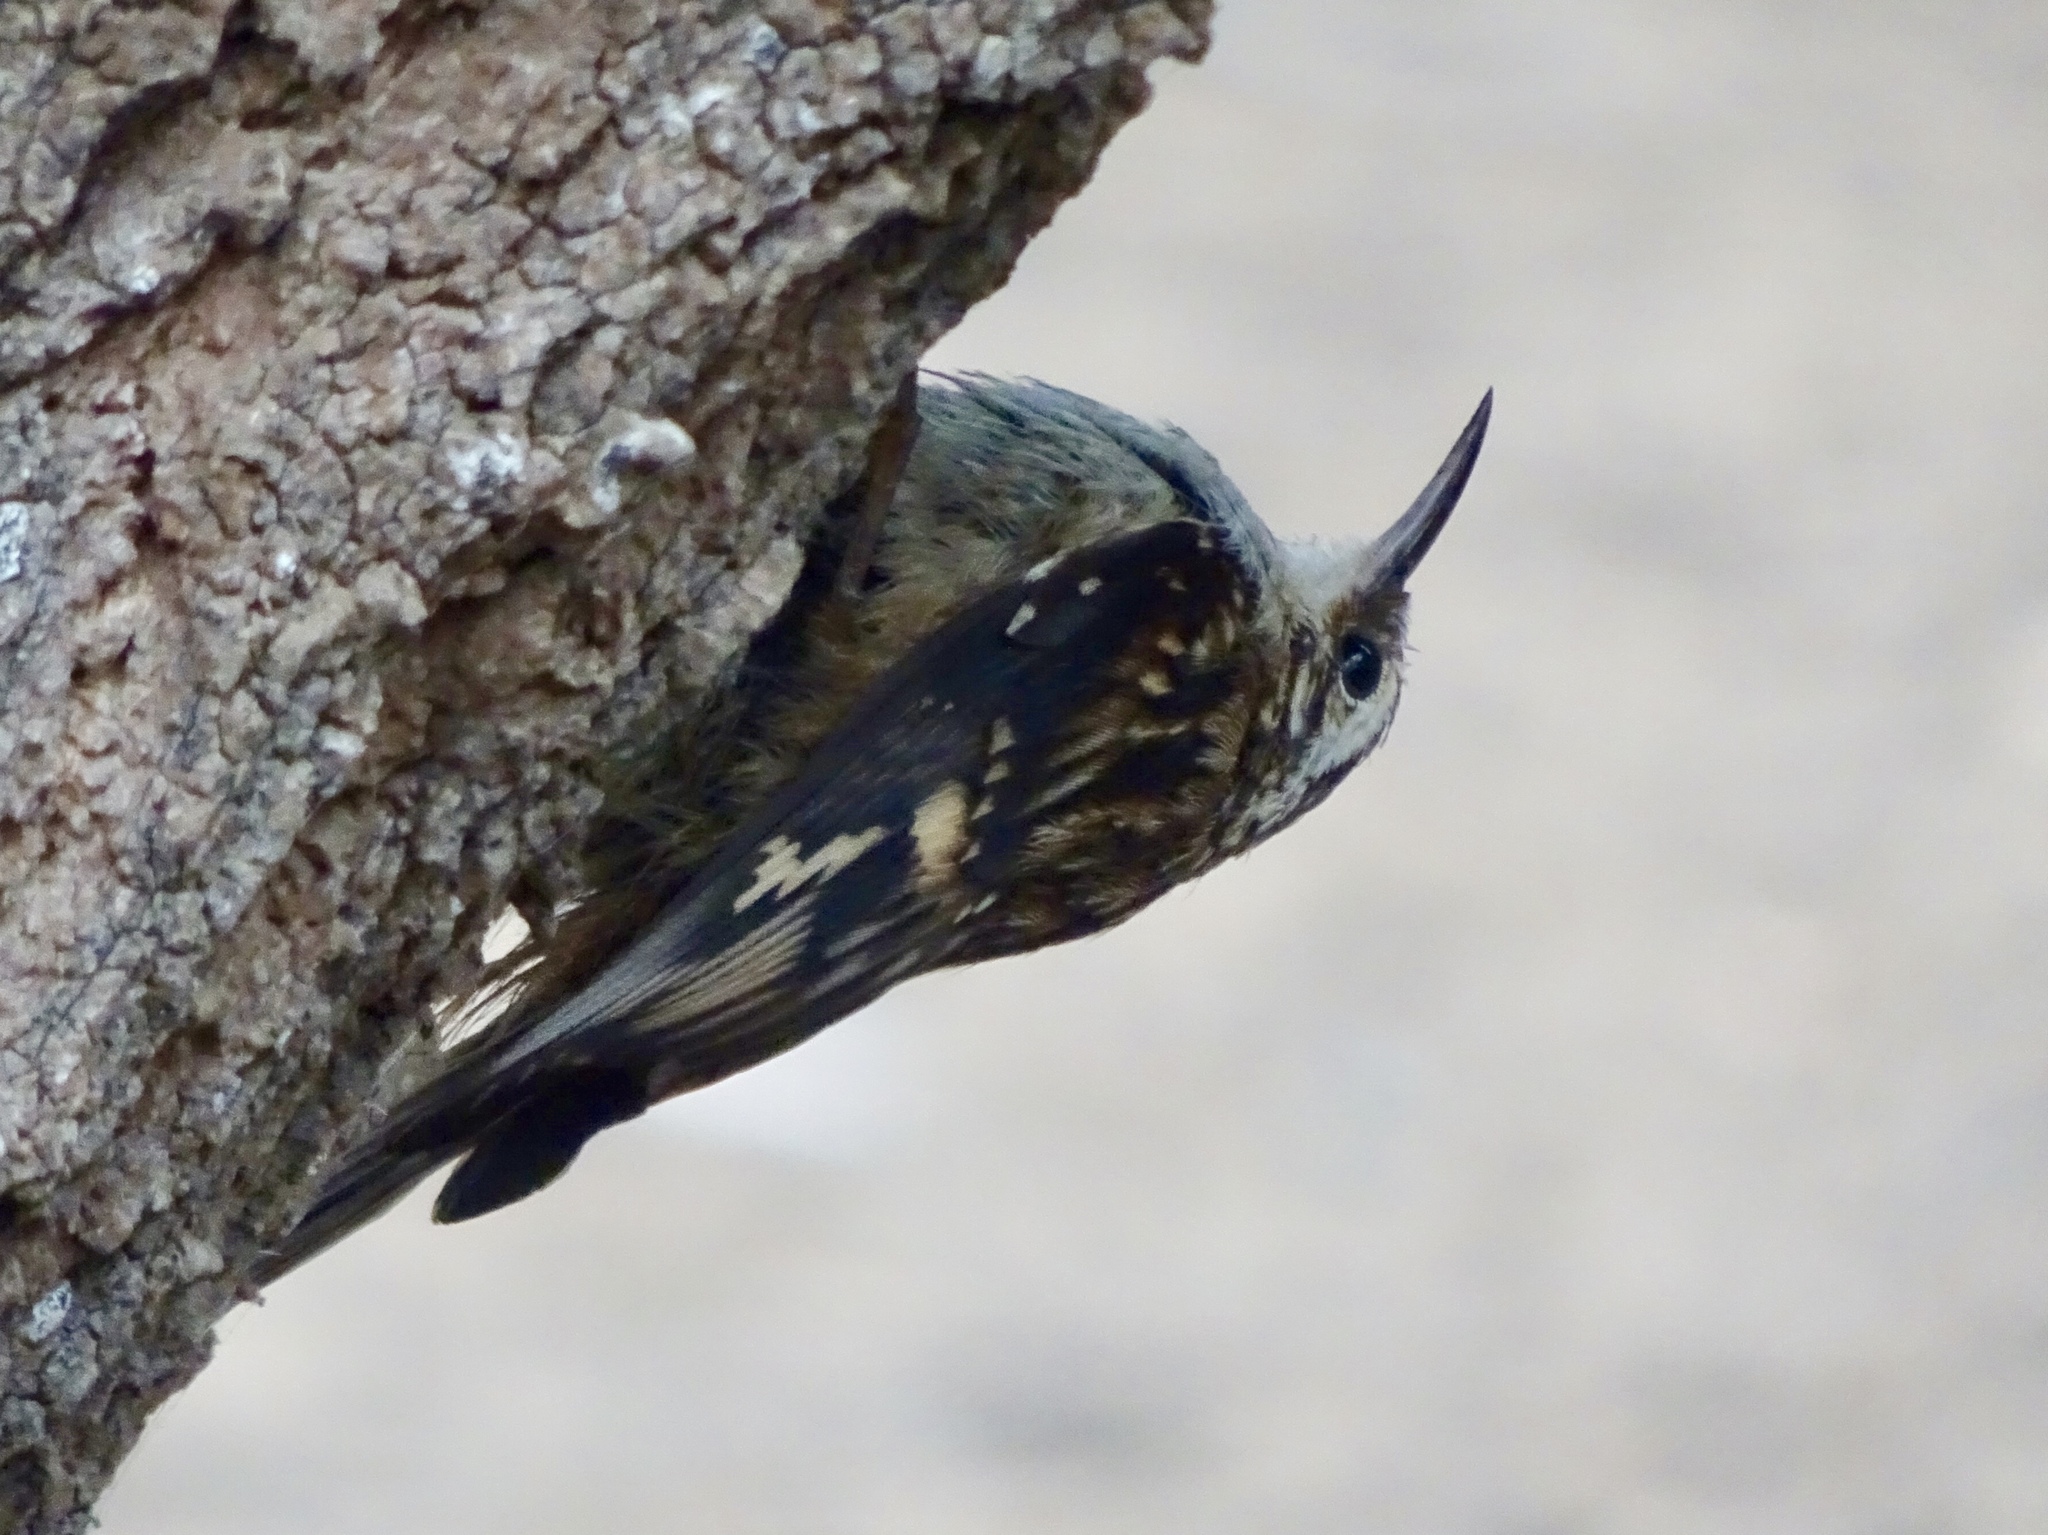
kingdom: Animalia
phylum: Chordata
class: Aves
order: Passeriformes
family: Certhiidae
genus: Certhia
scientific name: Certhia americana
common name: Brown creeper
